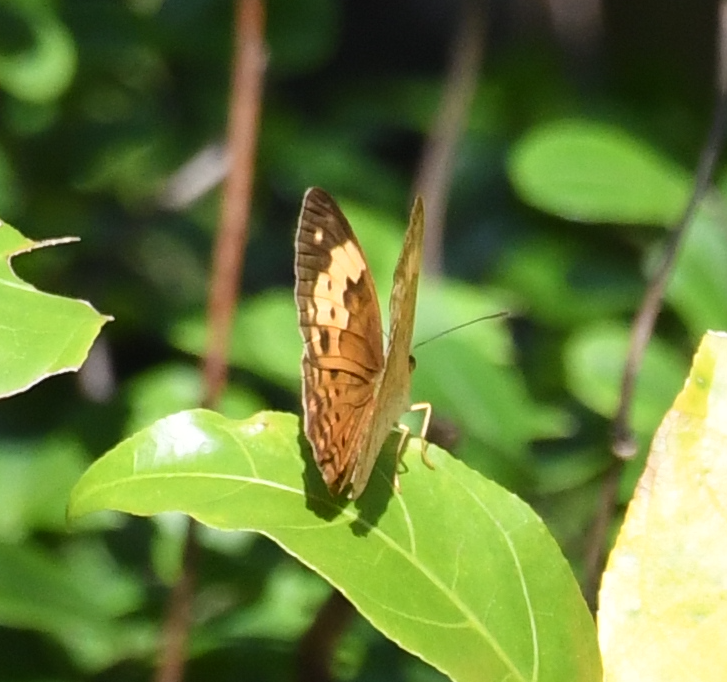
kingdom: Animalia
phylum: Arthropoda
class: Insecta
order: Lepidoptera
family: Nymphalidae
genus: Cupha
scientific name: Cupha erymanthis
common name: Rustic
